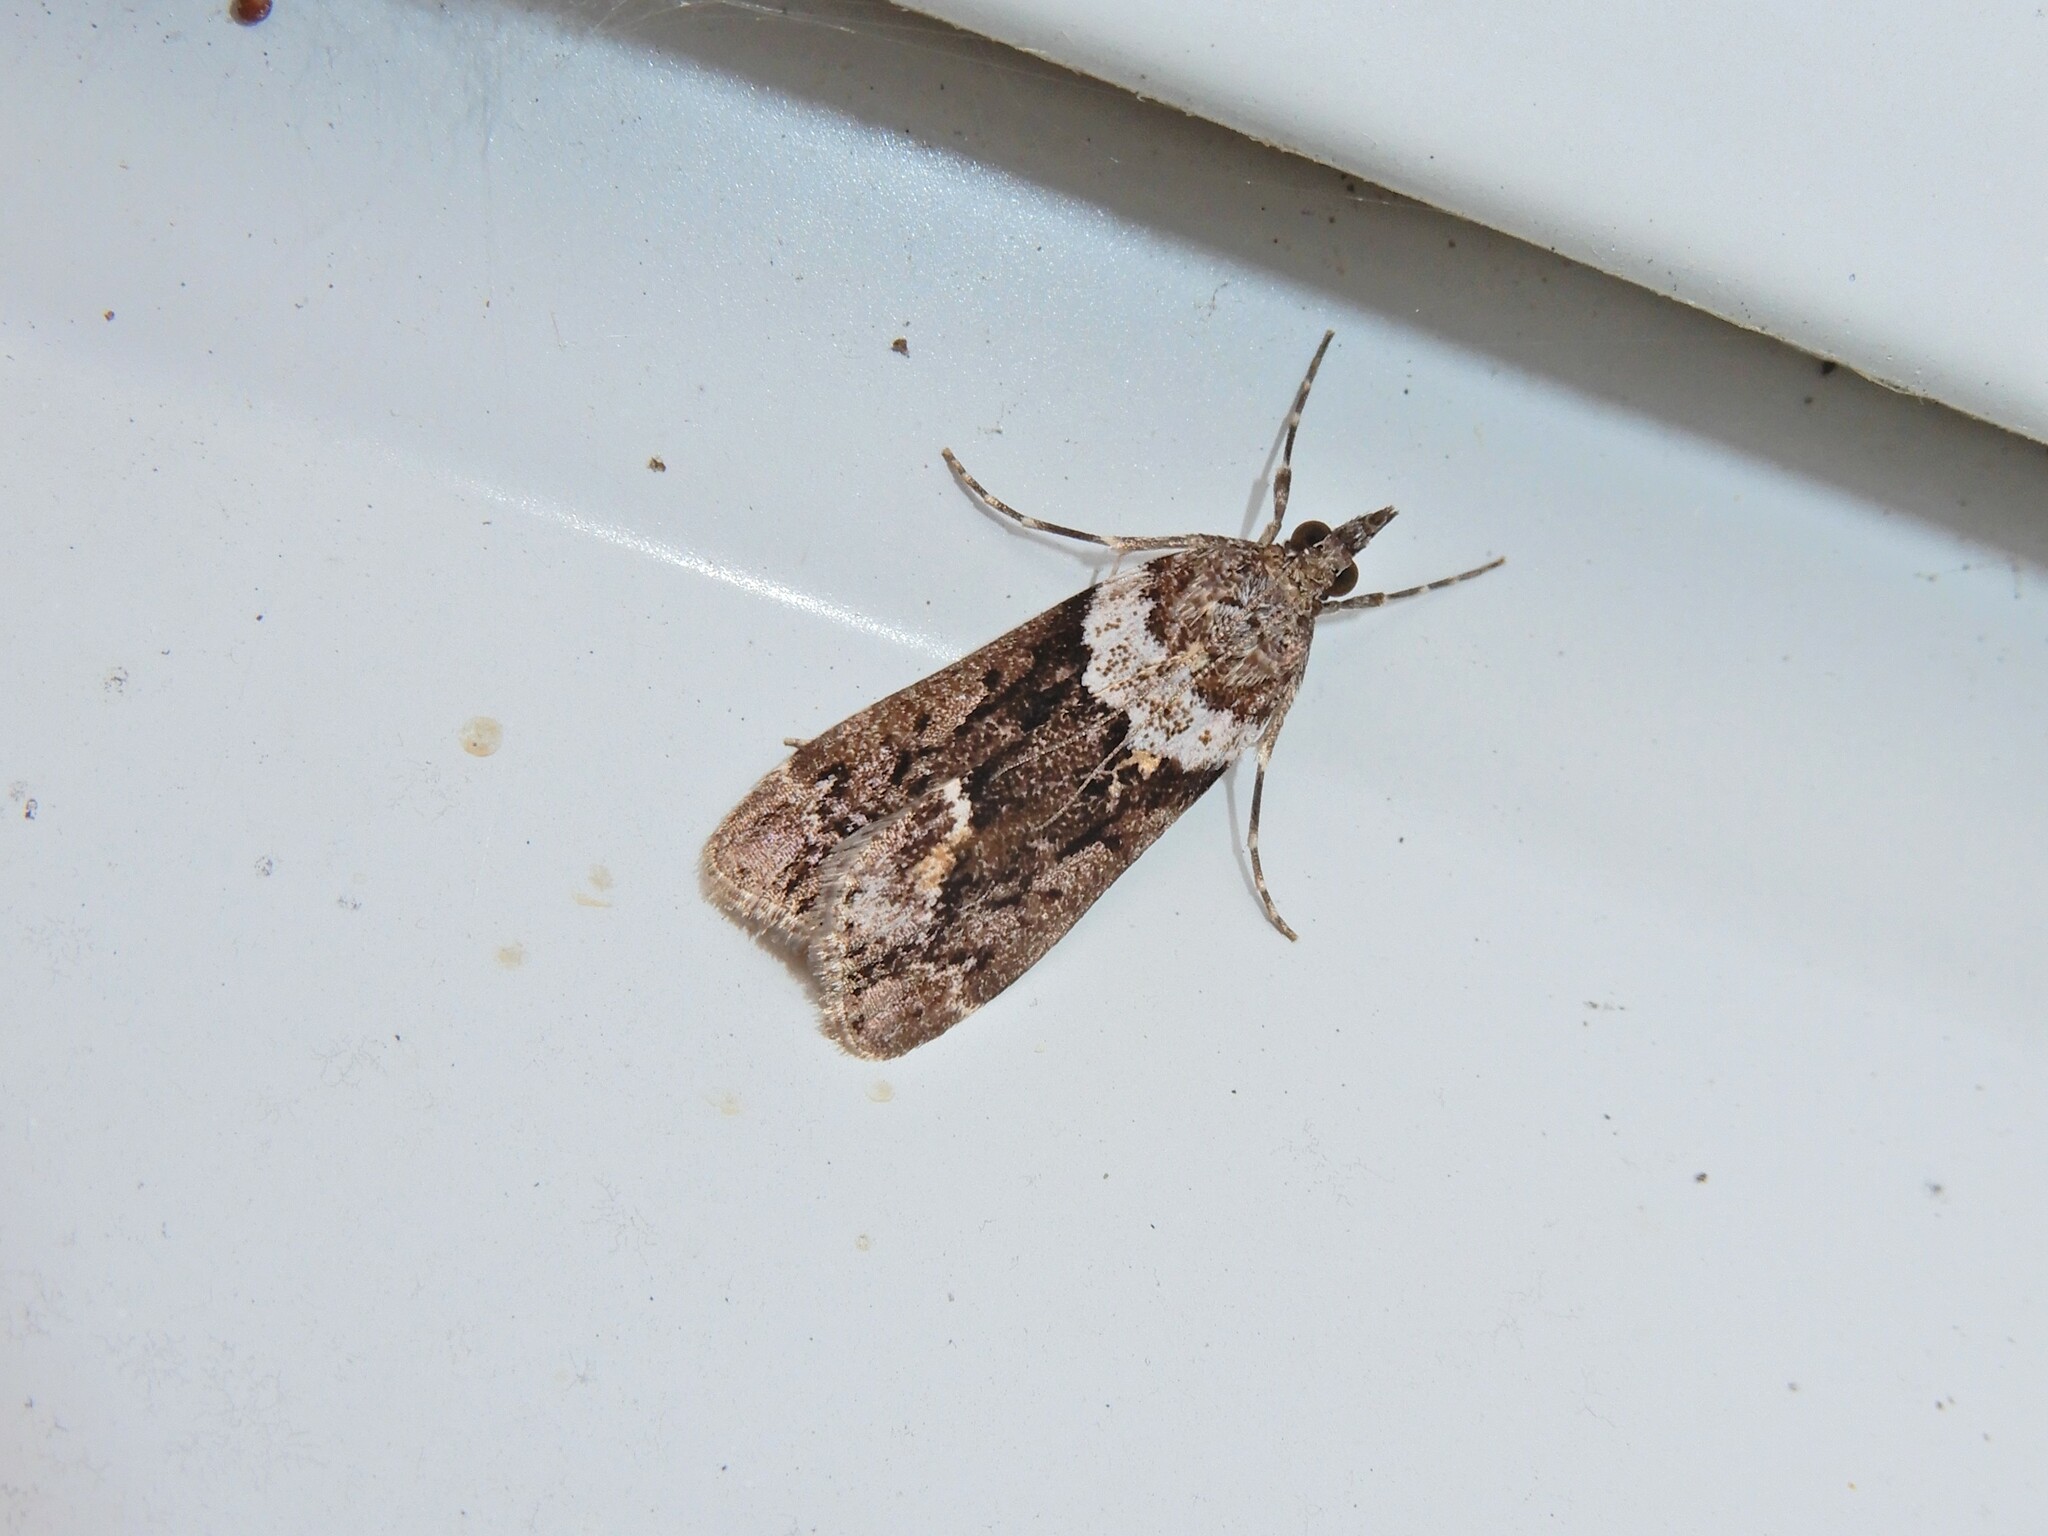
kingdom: Animalia
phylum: Arthropoda
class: Insecta
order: Lepidoptera
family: Crambidae
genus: Eudonia
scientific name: Eudonia submarginalis
